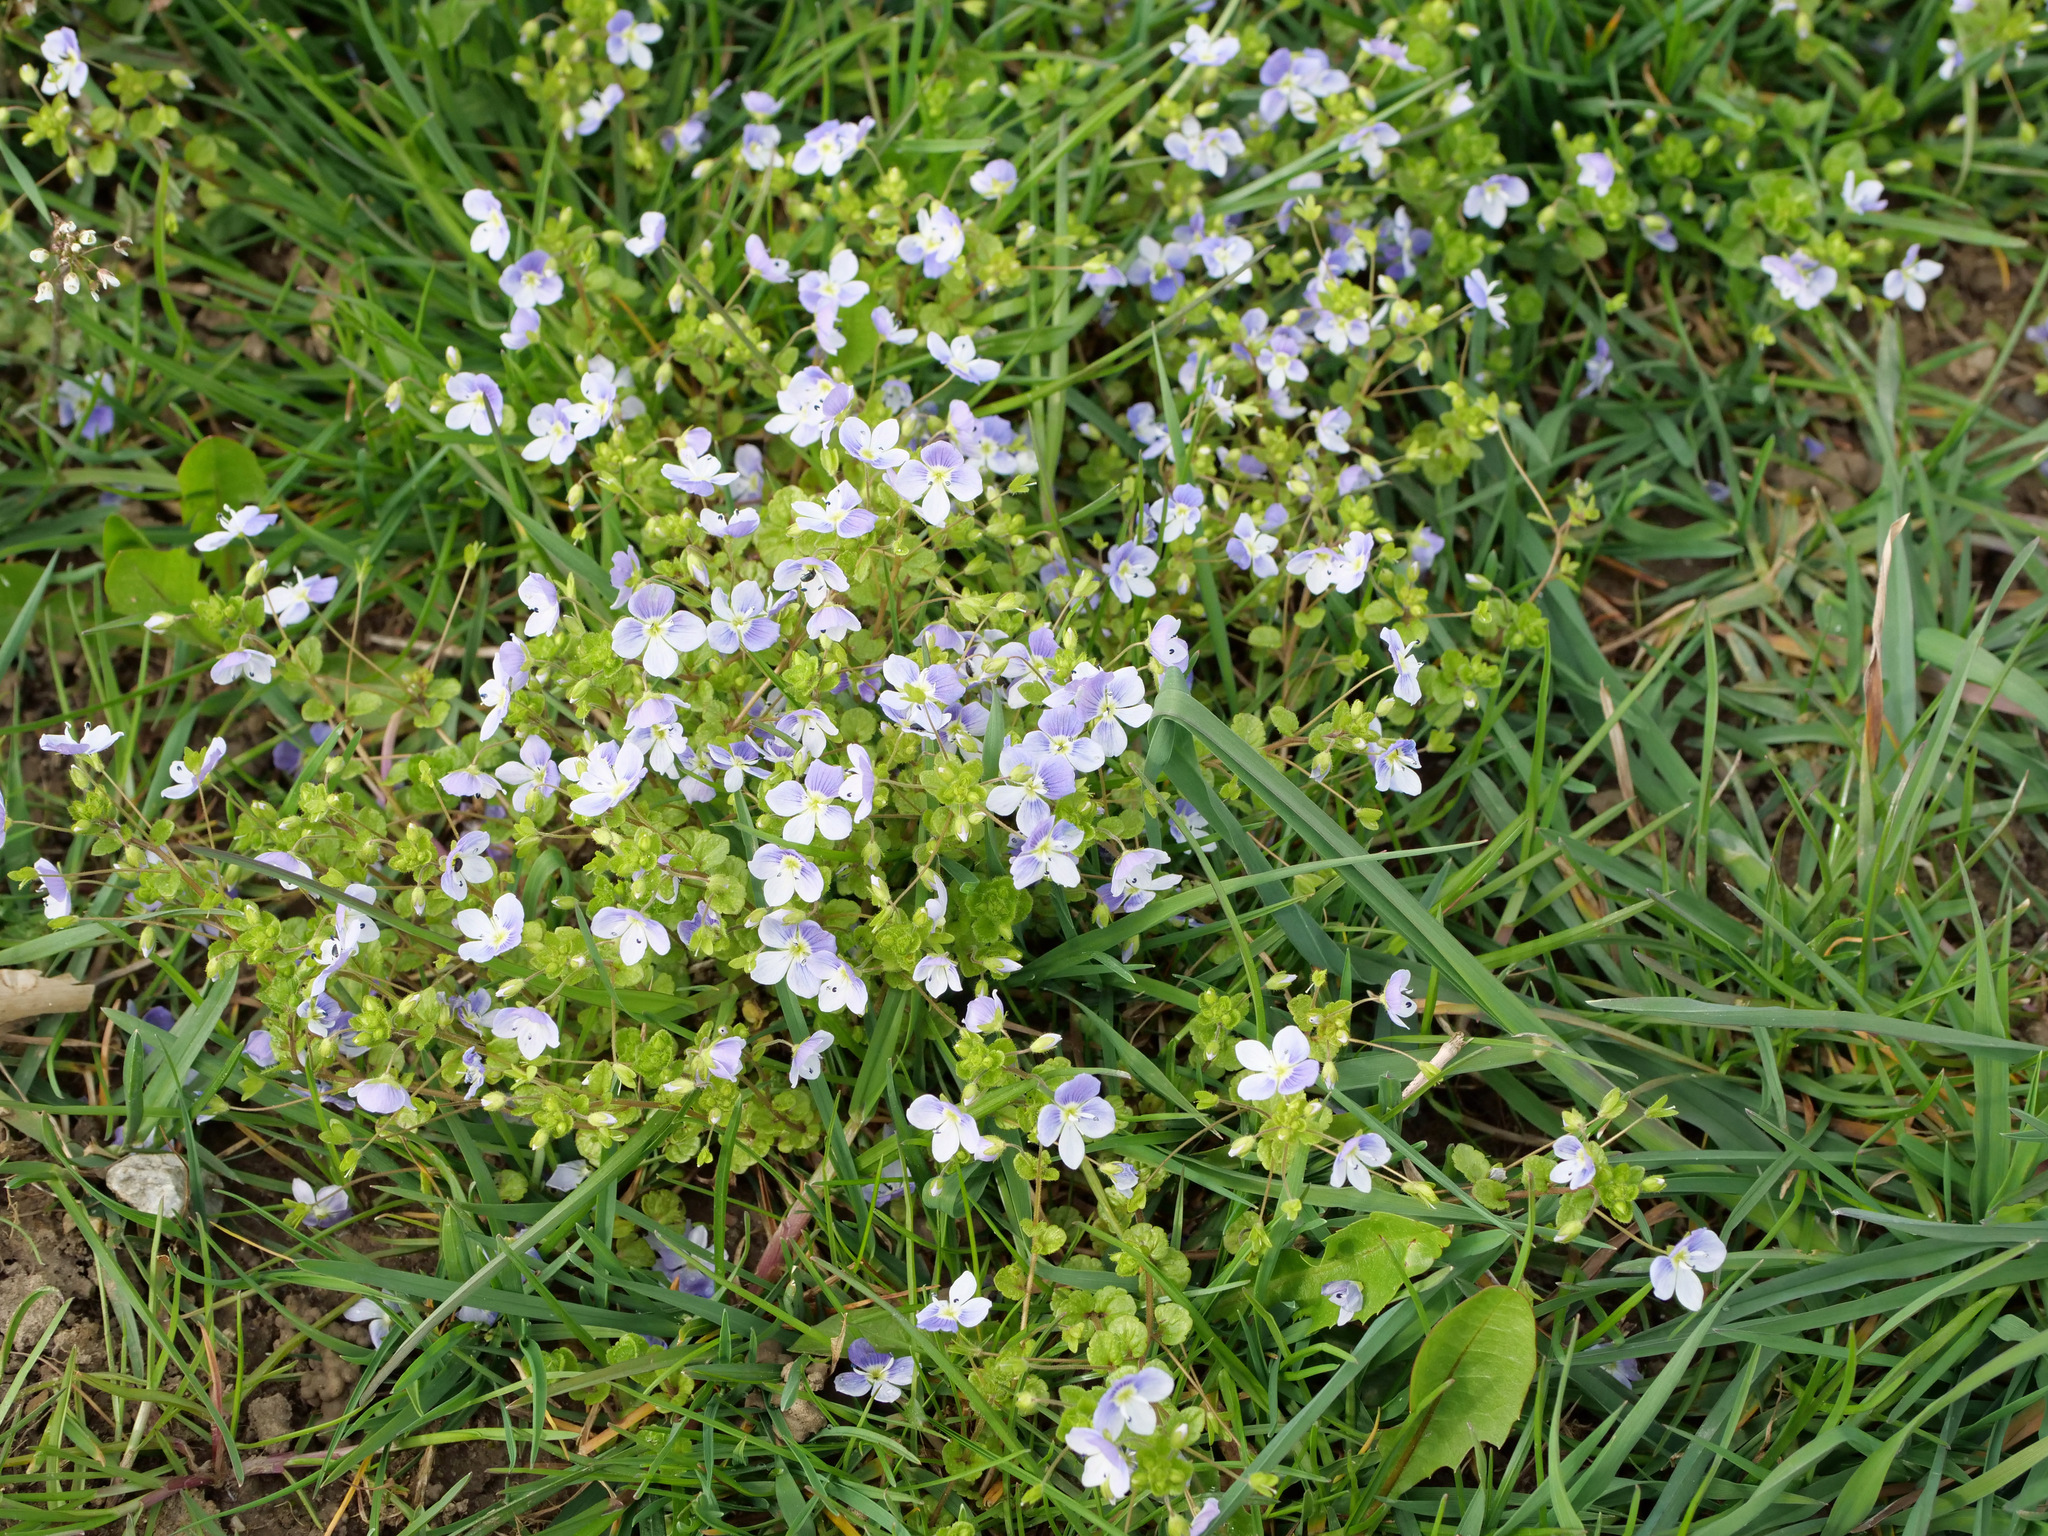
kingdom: Plantae
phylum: Tracheophyta
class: Magnoliopsida
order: Lamiales
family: Plantaginaceae
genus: Veronica
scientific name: Veronica filiformis
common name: Slender speedwell
